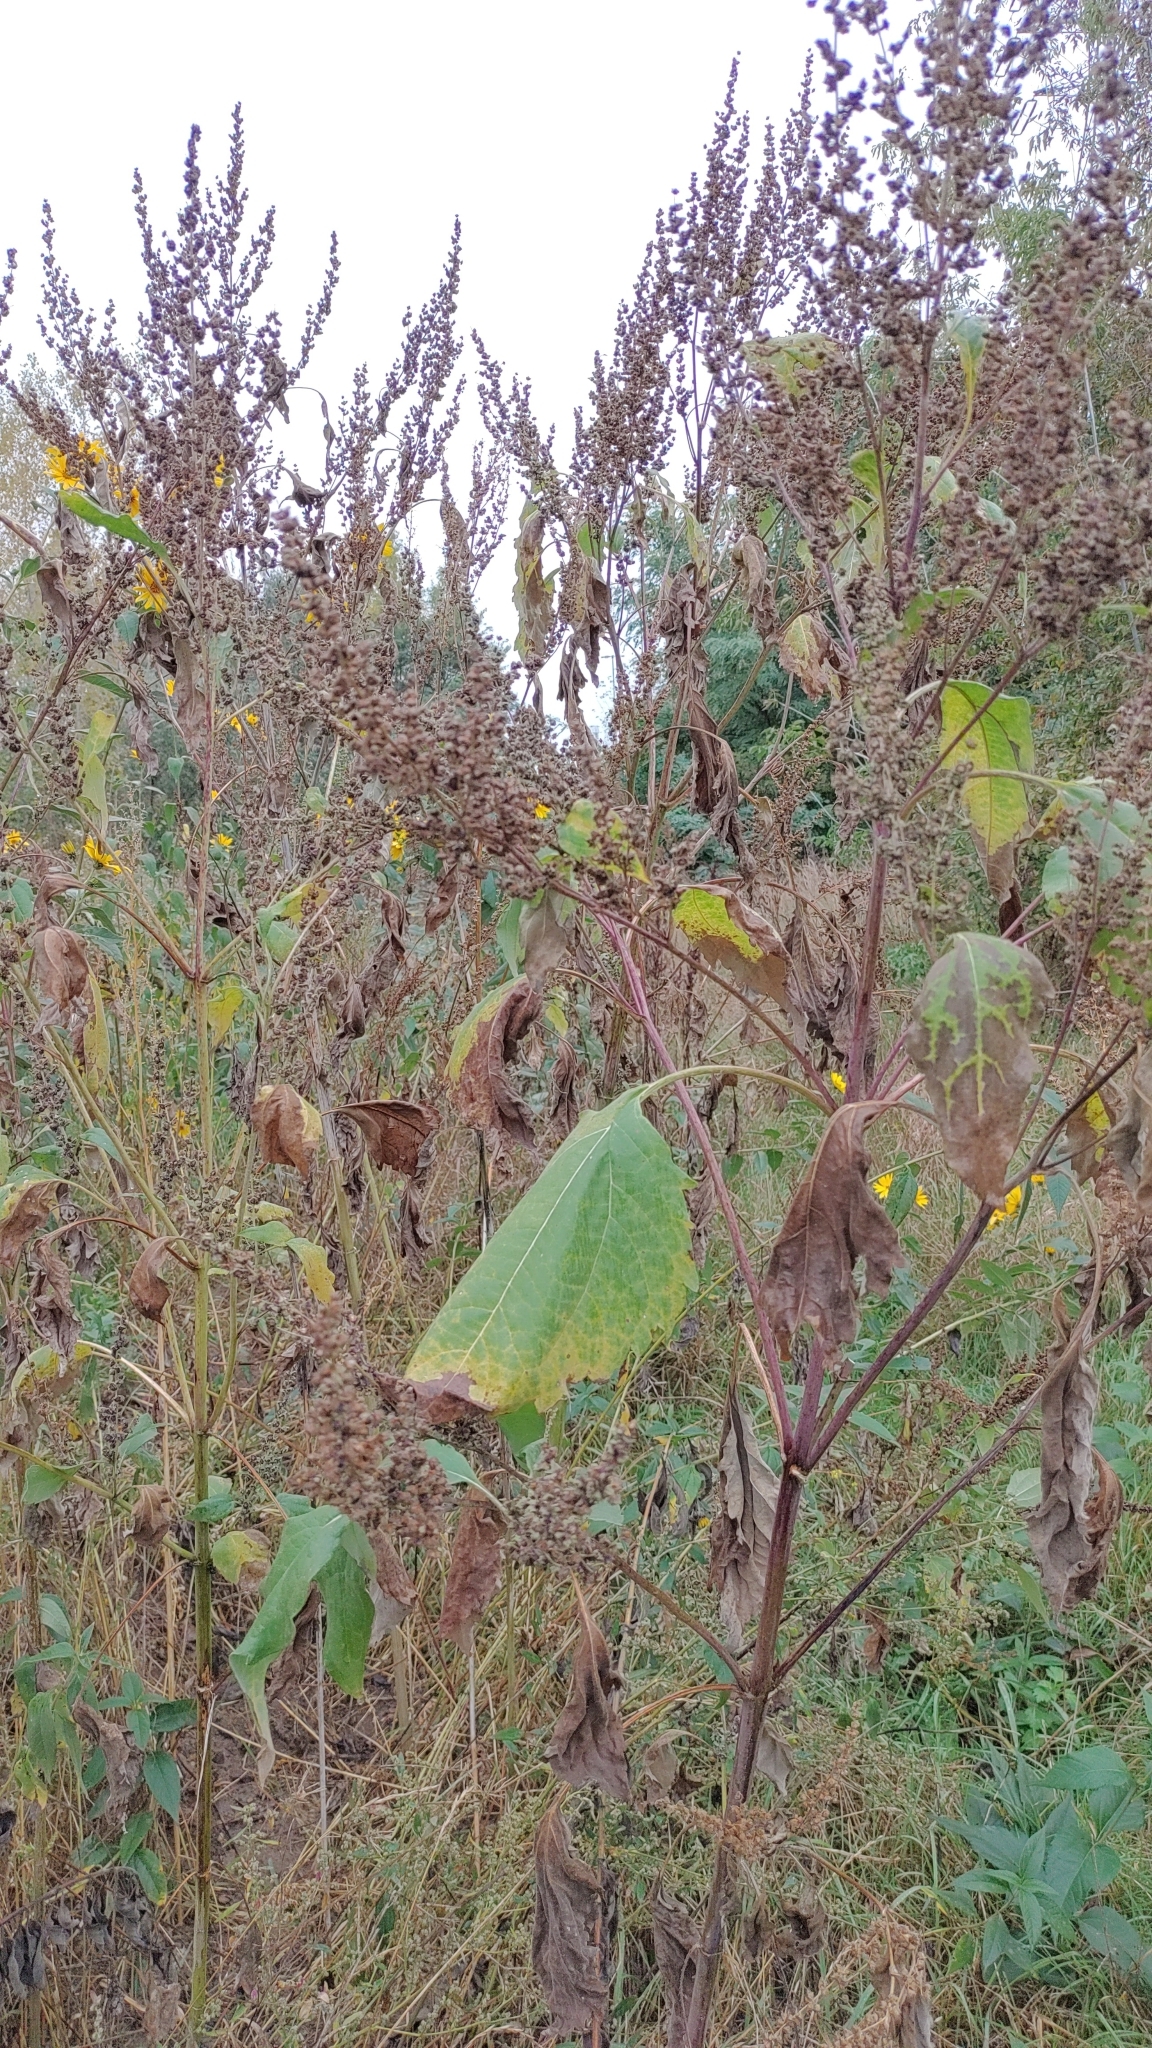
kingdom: Plantae
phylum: Tracheophyta
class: Magnoliopsida
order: Asterales
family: Asteraceae
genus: Cyclachaena
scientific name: Cyclachaena xanthiifolia
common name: Giant sumpweed
